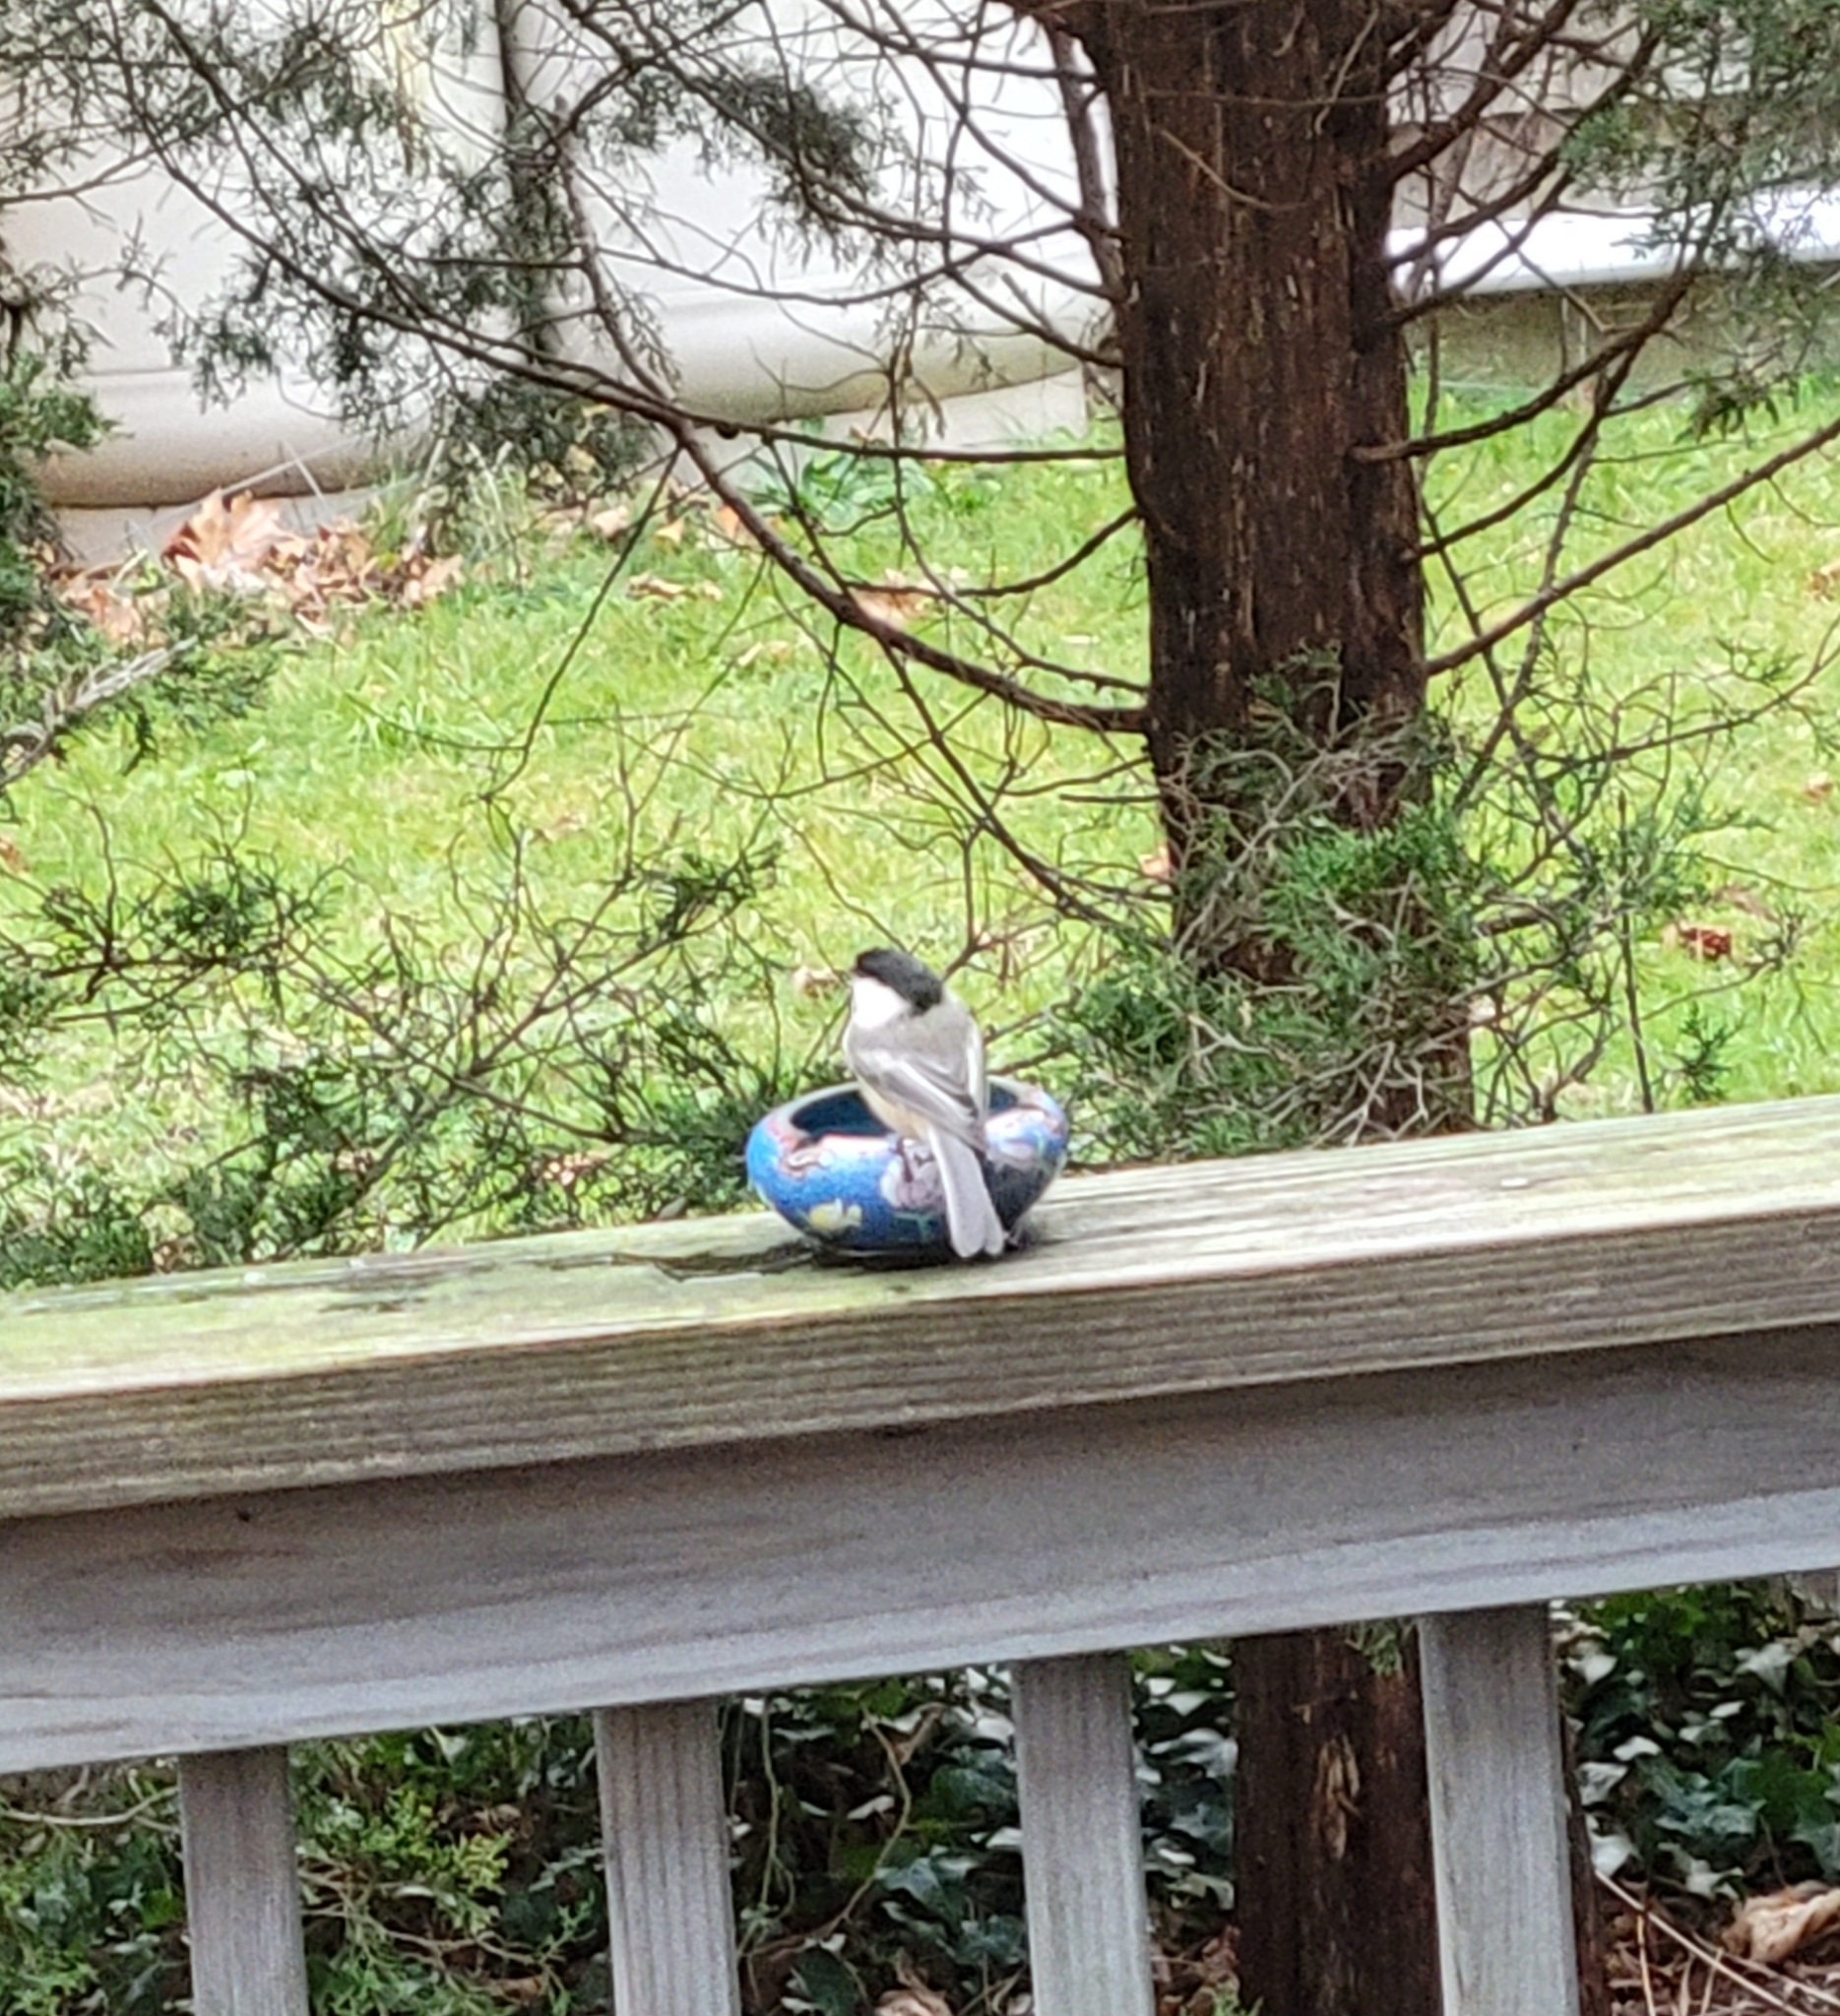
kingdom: Animalia
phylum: Chordata
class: Aves
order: Passeriformes
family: Paridae
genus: Poecile
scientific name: Poecile atricapillus
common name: Black-capped chickadee
